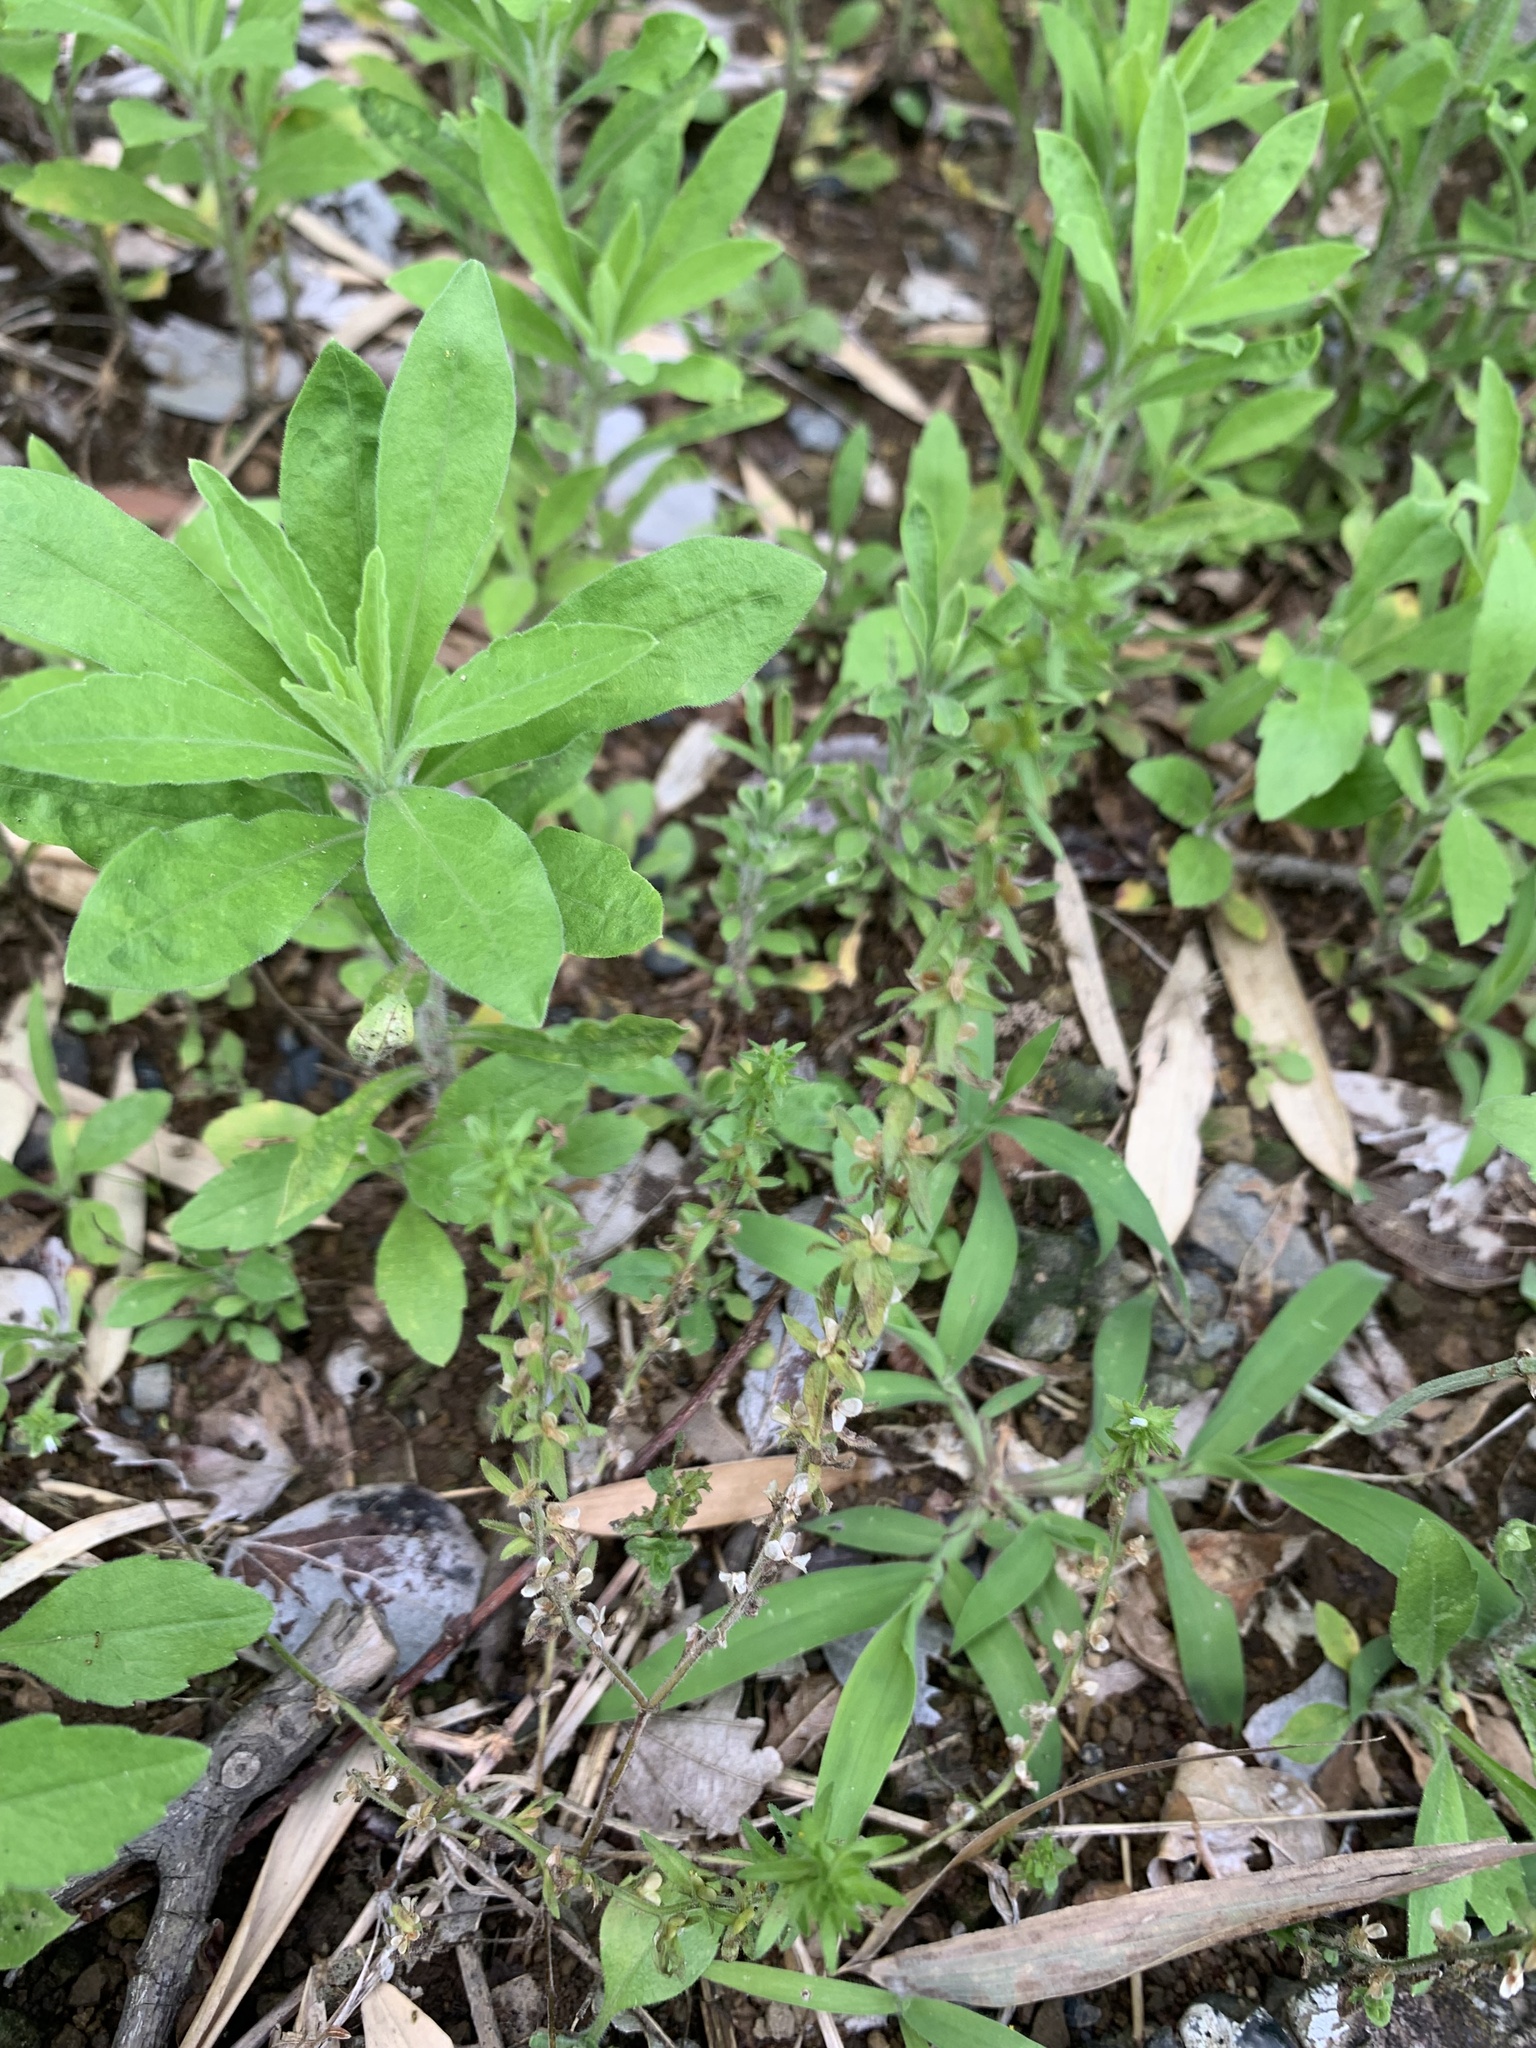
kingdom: Plantae
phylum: Tracheophyta
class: Magnoliopsida
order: Lamiales
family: Plantaginaceae
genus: Veronica
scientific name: Veronica arvensis
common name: Corn speedwell
